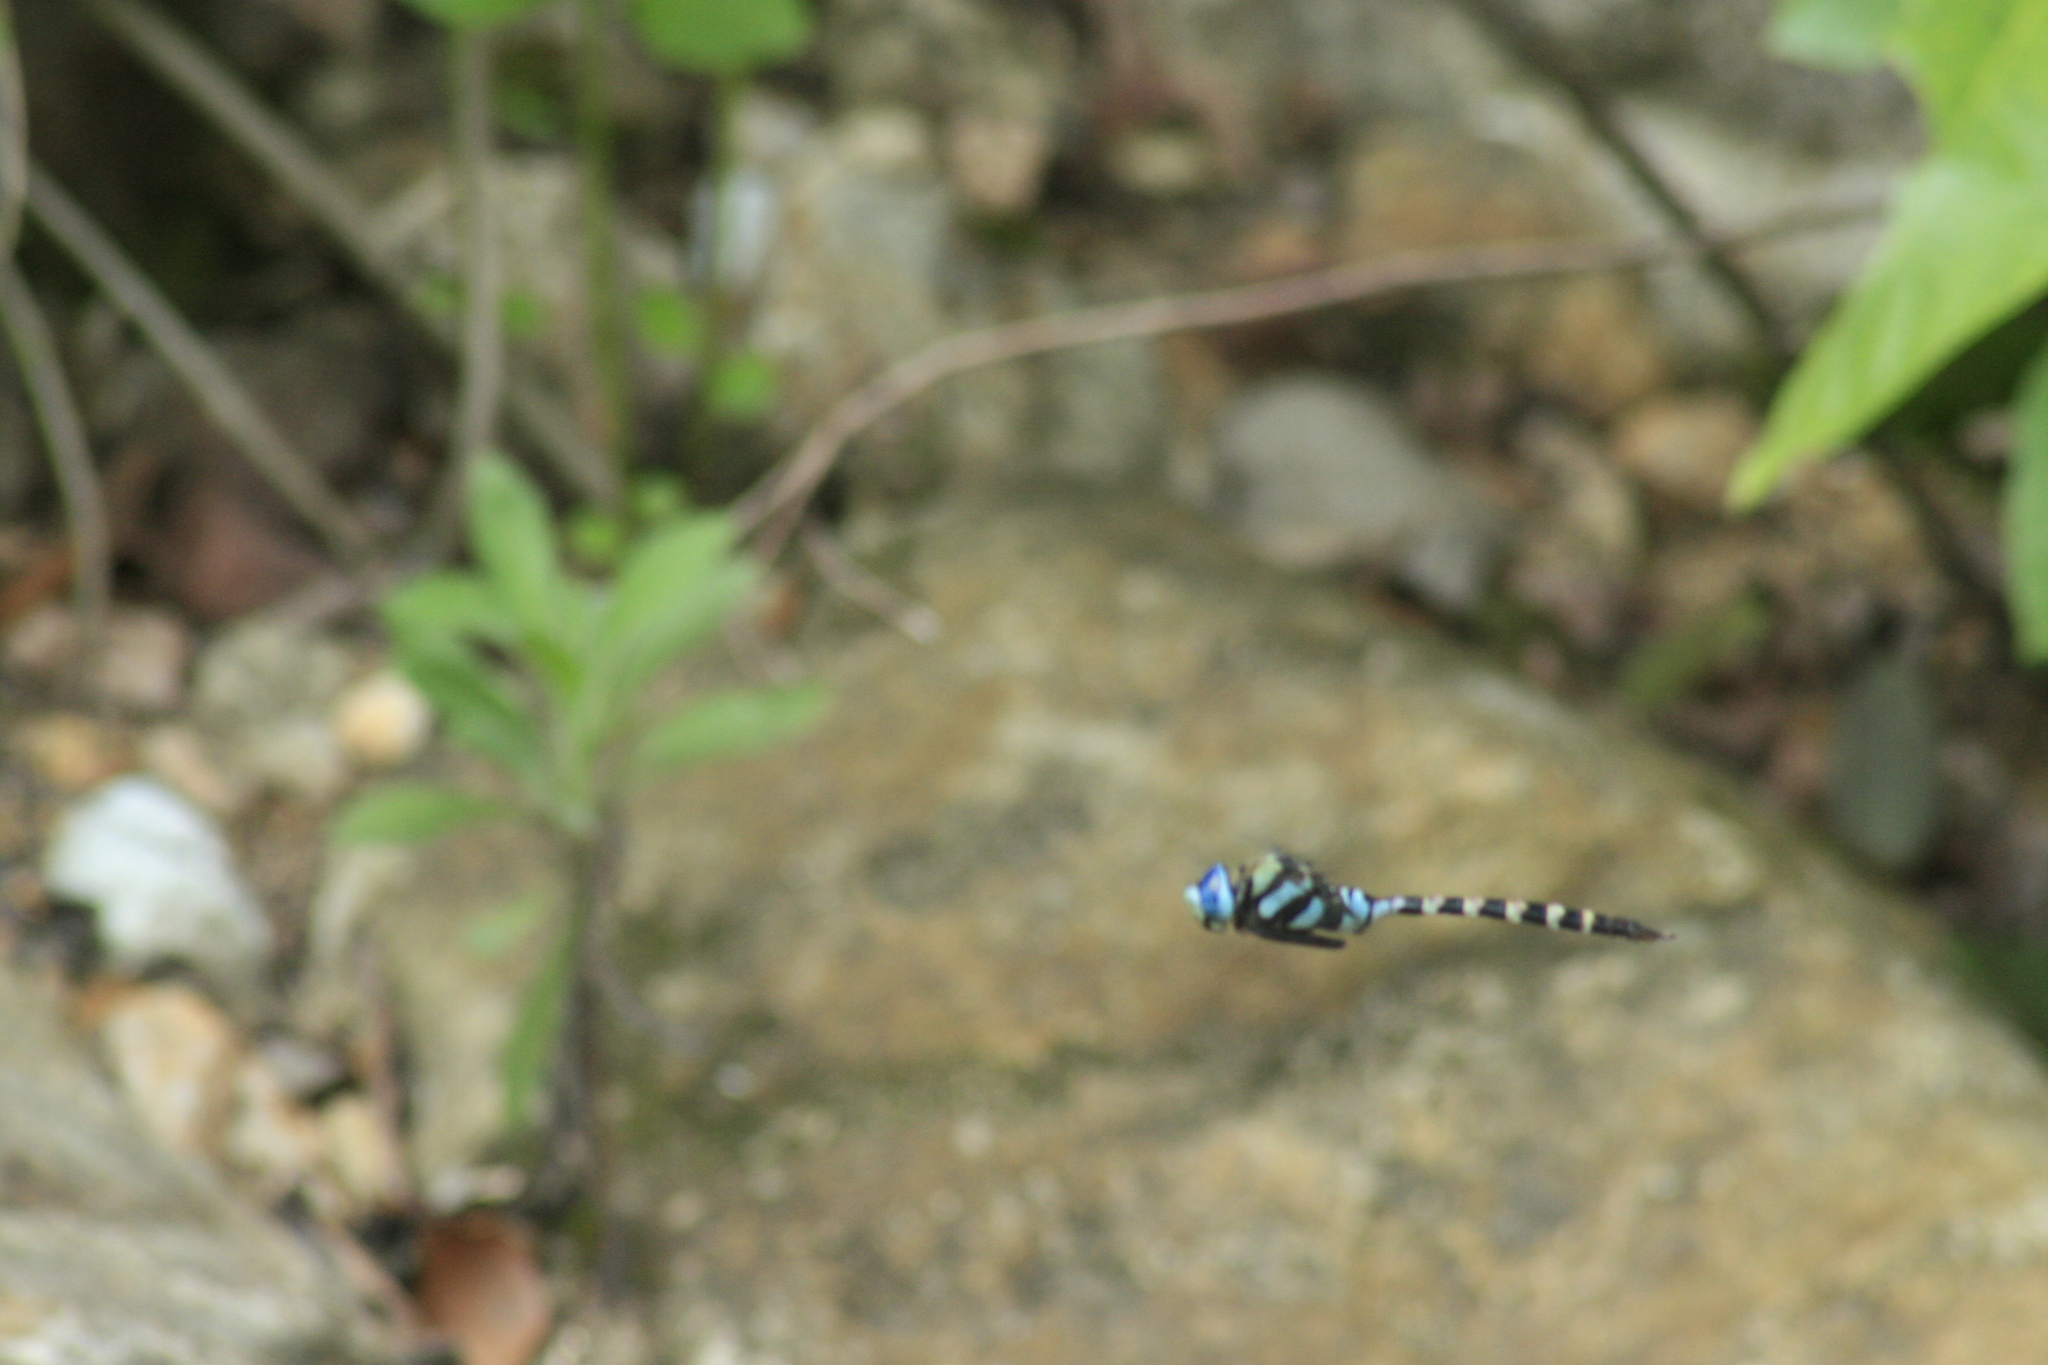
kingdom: Animalia
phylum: Arthropoda
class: Insecta
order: Odonata
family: Aeshnidae
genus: Anax
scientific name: Anax immaculifrons
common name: Magnificent emperor
